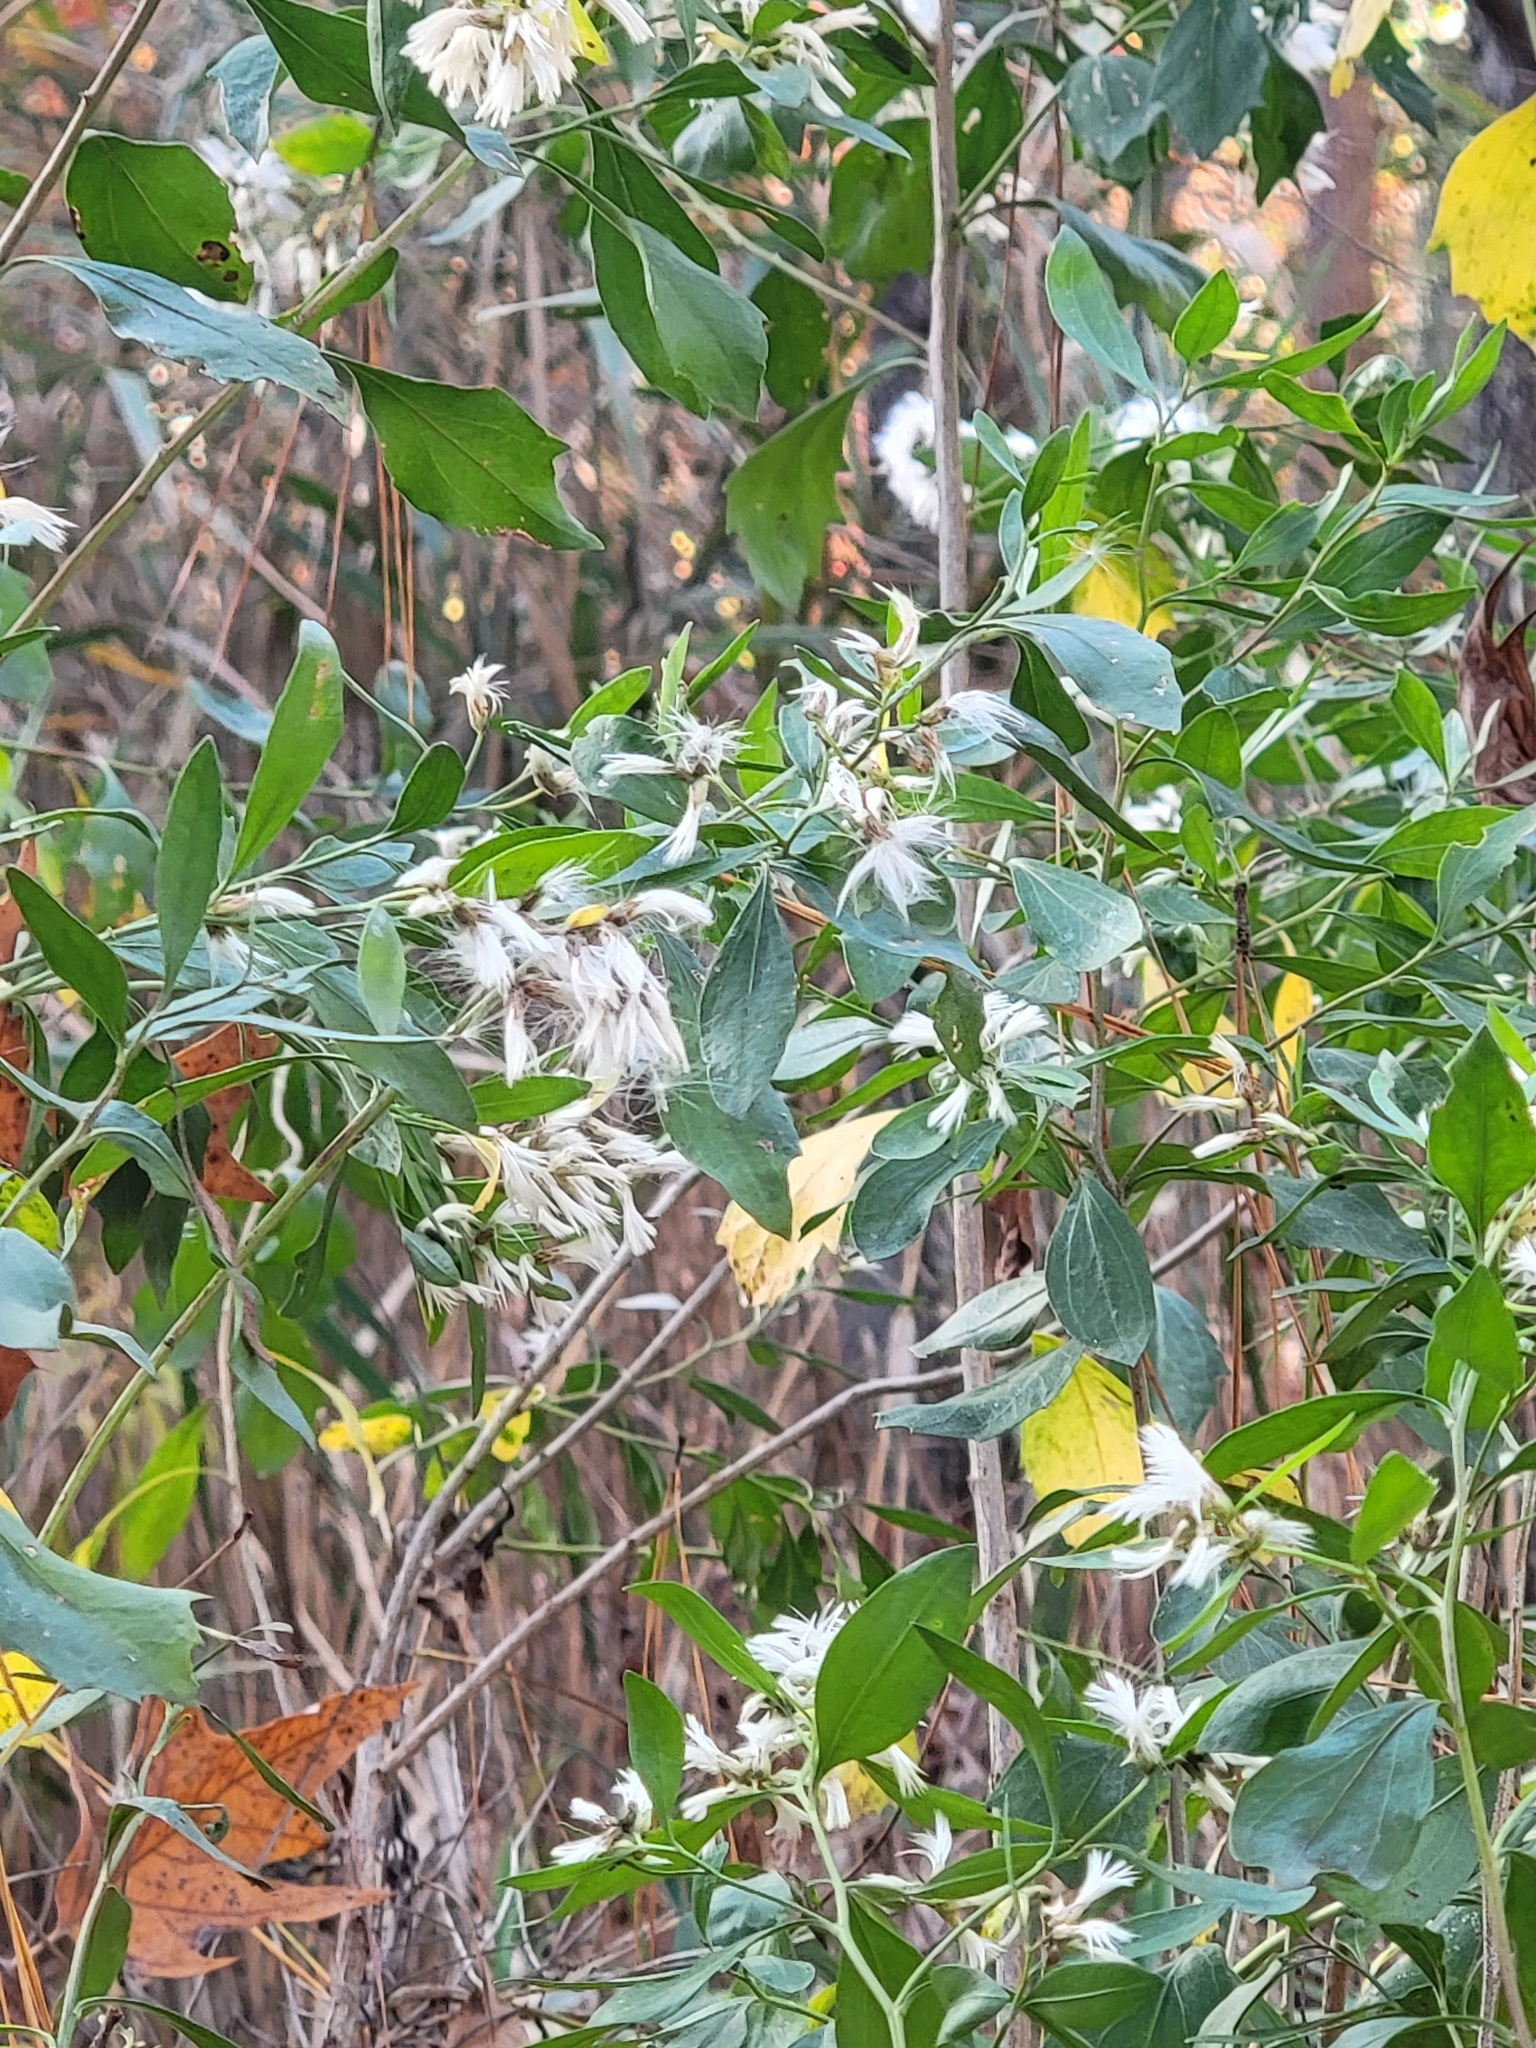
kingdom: Plantae
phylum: Tracheophyta
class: Magnoliopsida
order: Asterales
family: Asteraceae
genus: Baccharis
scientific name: Baccharis halimifolia
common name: Eastern baccharis
